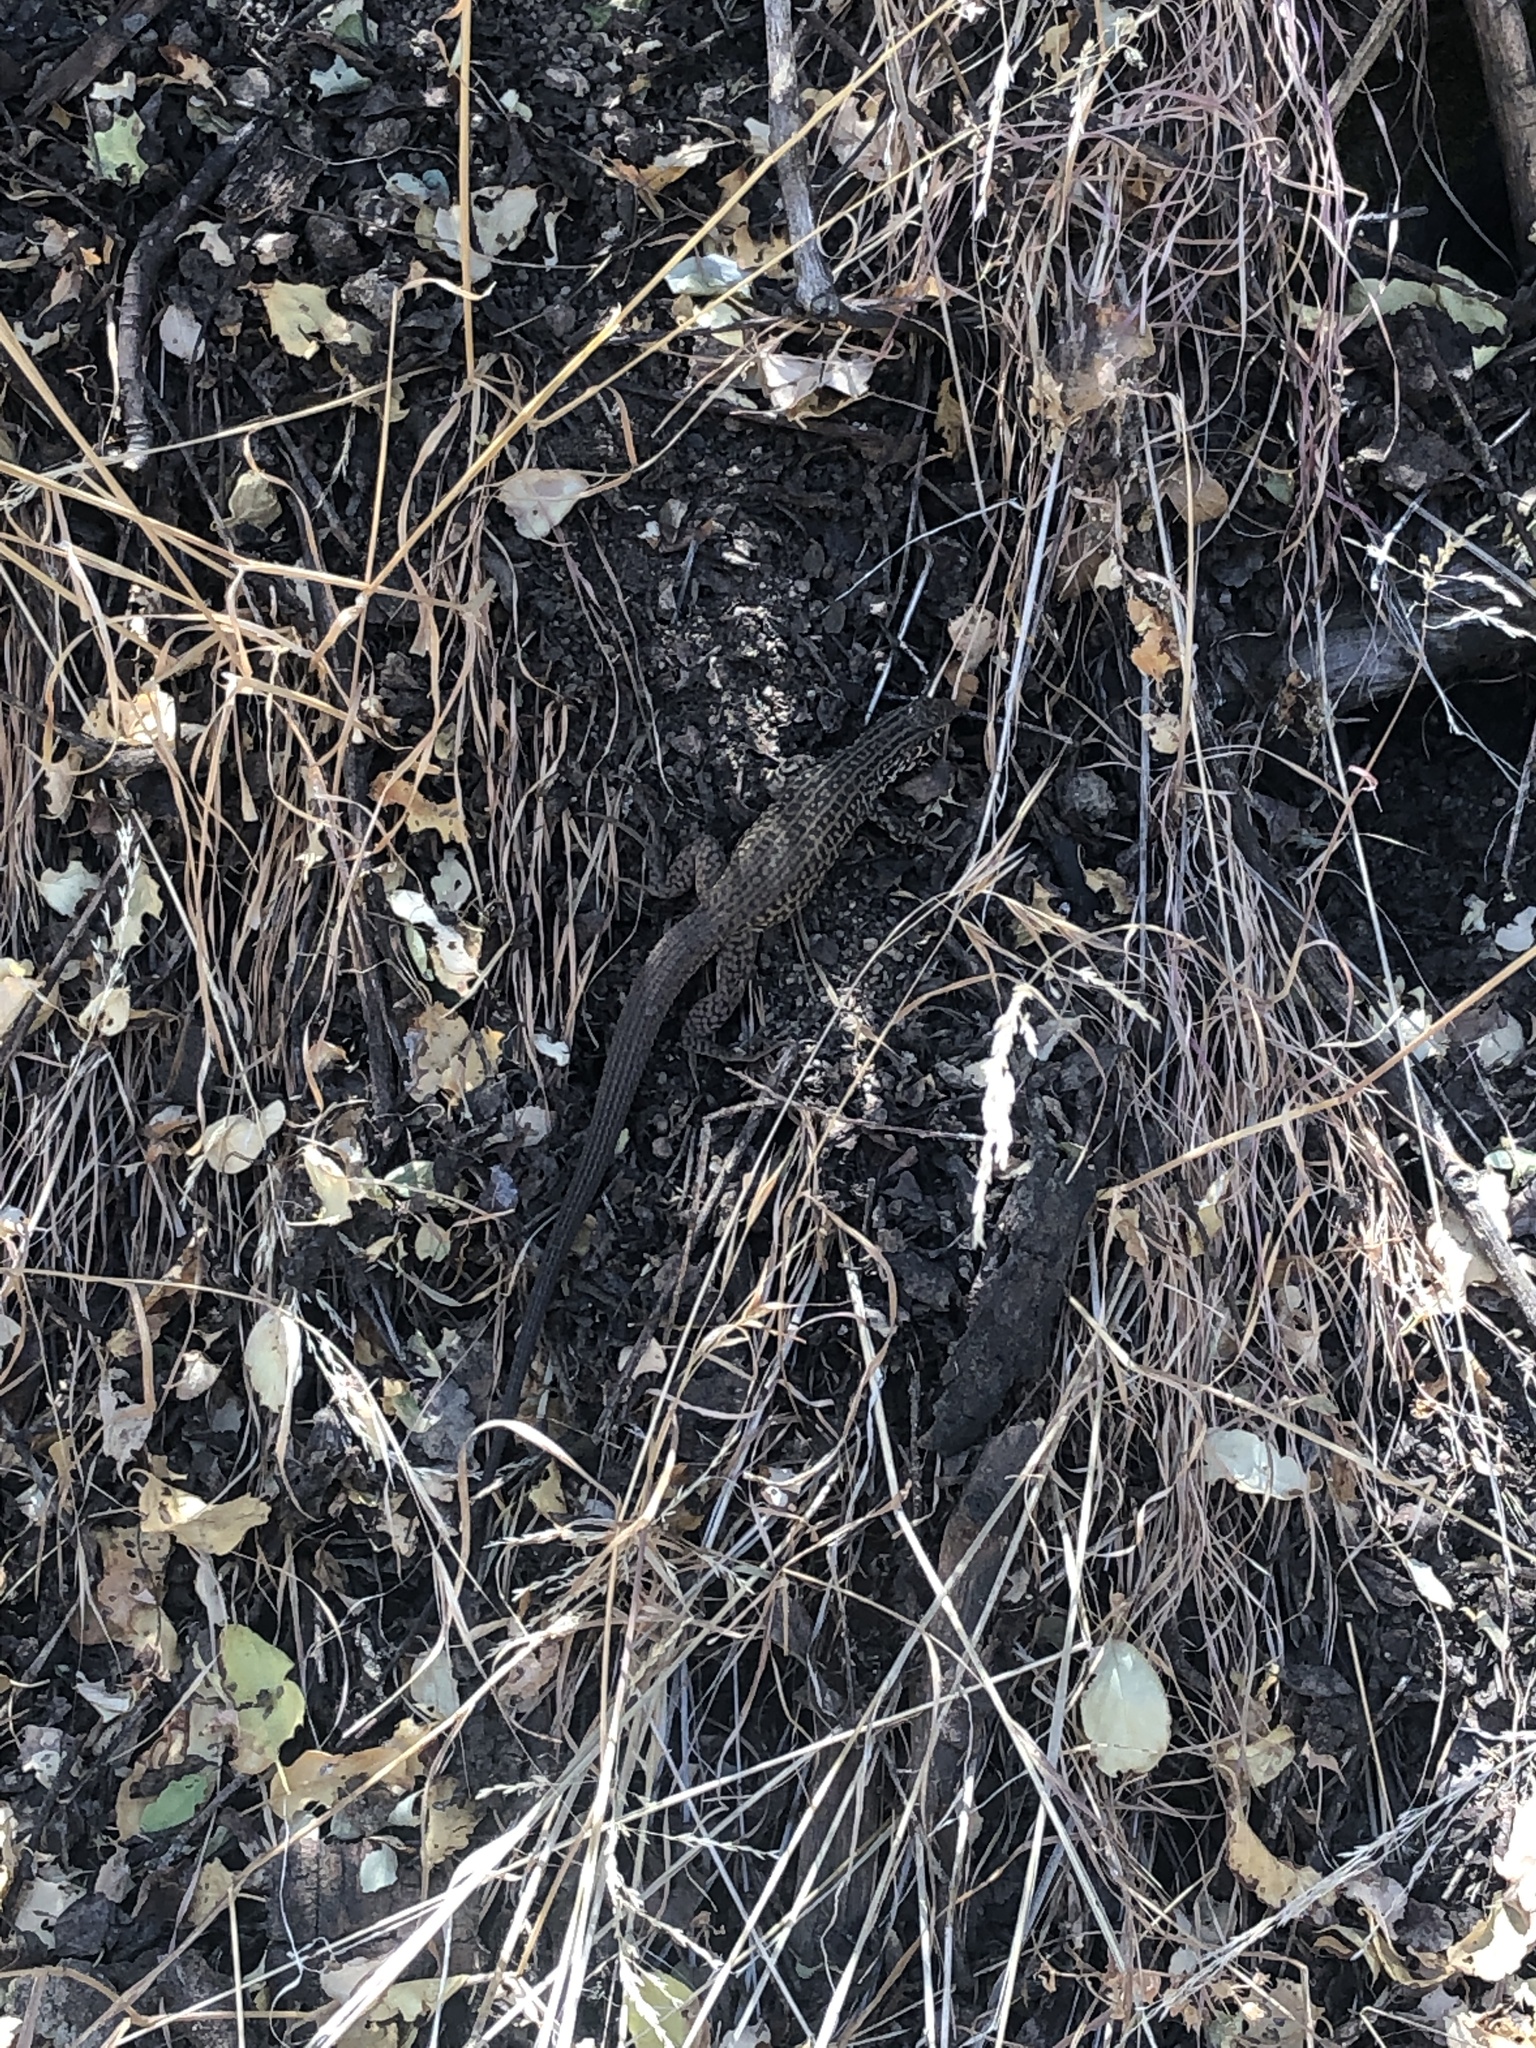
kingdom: Animalia
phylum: Chordata
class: Squamata
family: Teiidae
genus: Aspidoscelis
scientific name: Aspidoscelis tigris
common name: Tiger whiptail
